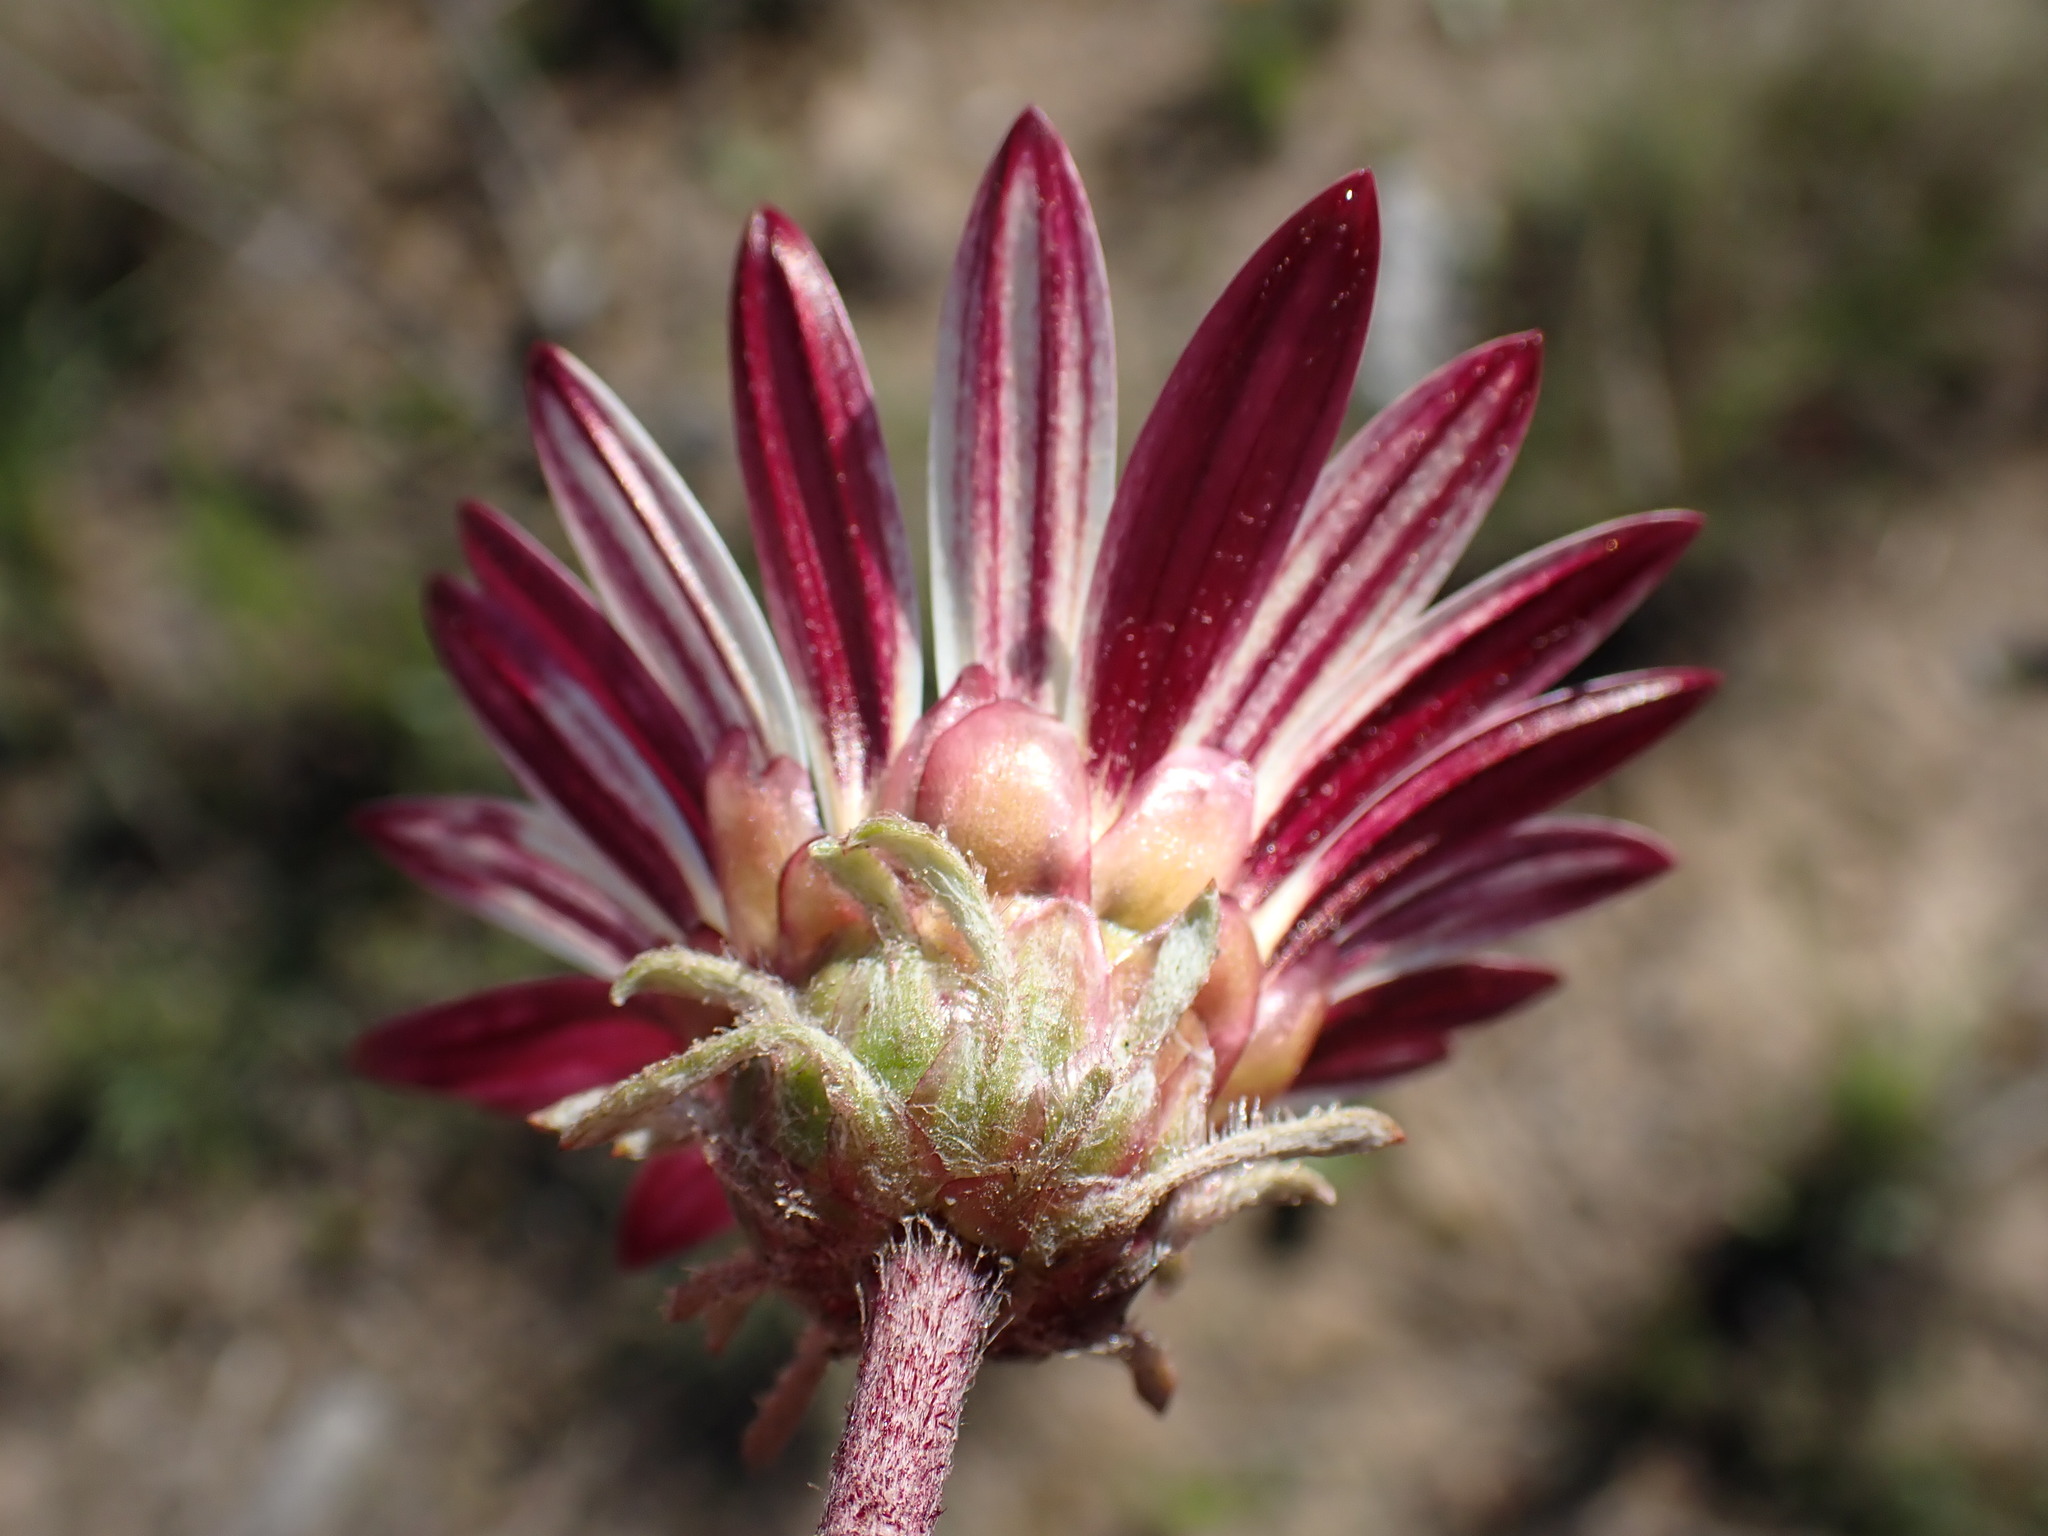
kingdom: Plantae
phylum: Tracheophyta
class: Magnoliopsida
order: Asterales
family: Asteraceae
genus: Arctotis
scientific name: Arctotis acaulis
